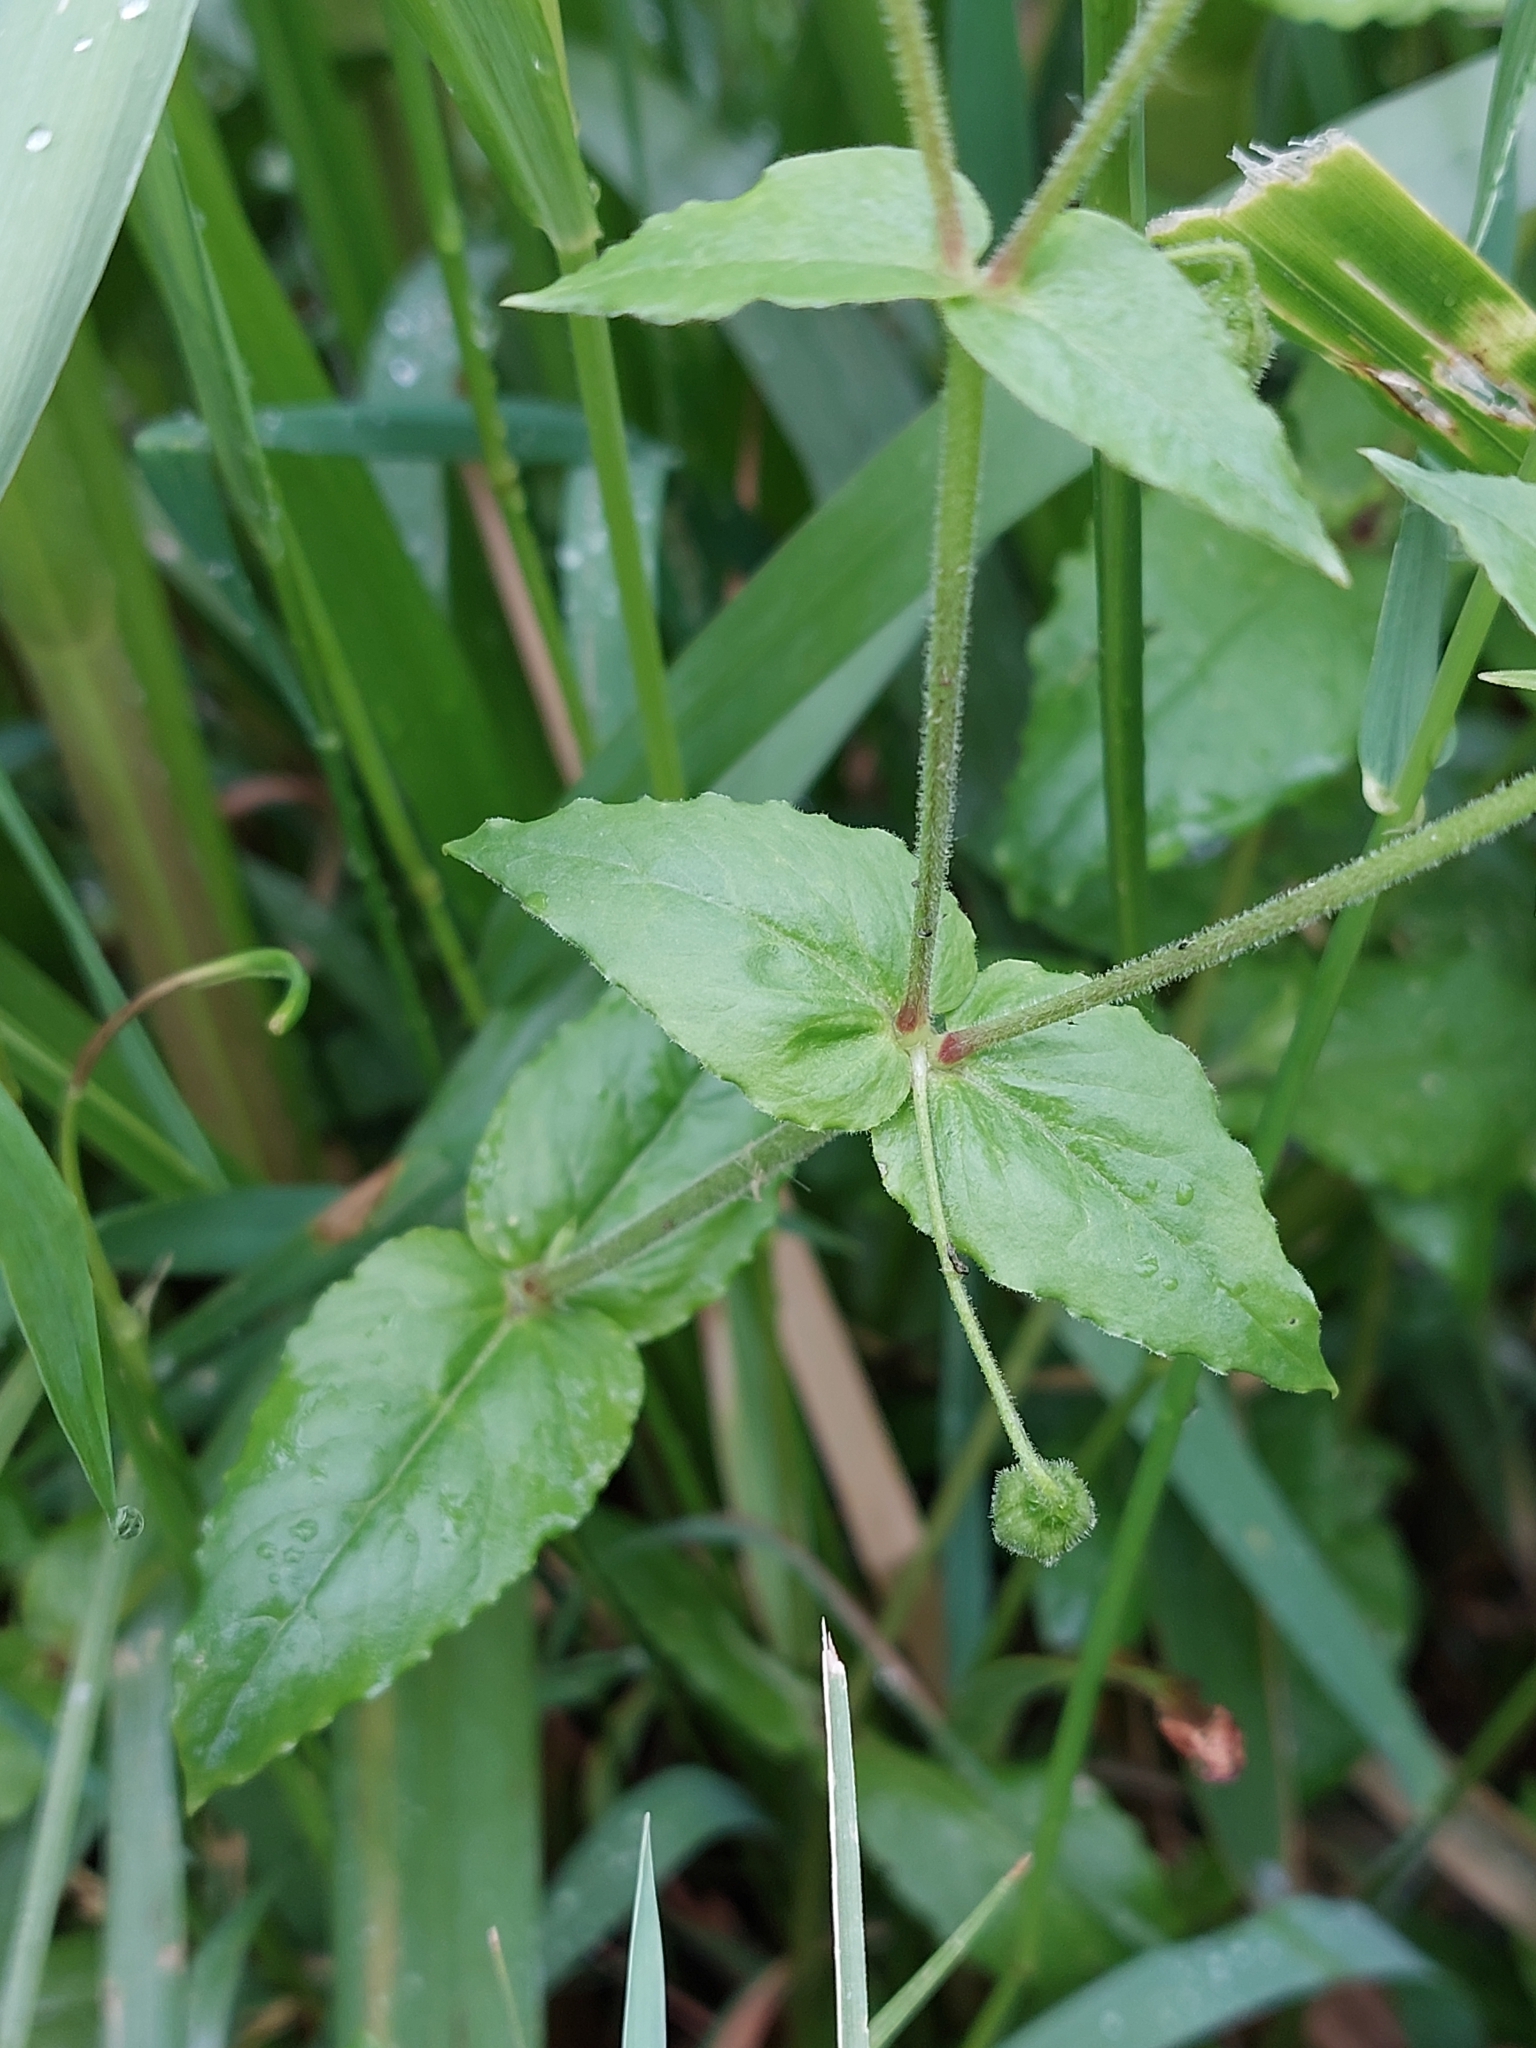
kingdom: Plantae
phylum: Tracheophyta
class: Magnoliopsida
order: Caryophyllales
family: Caryophyllaceae
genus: Stellaria
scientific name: Stellaria aquatica
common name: Water chickweed
